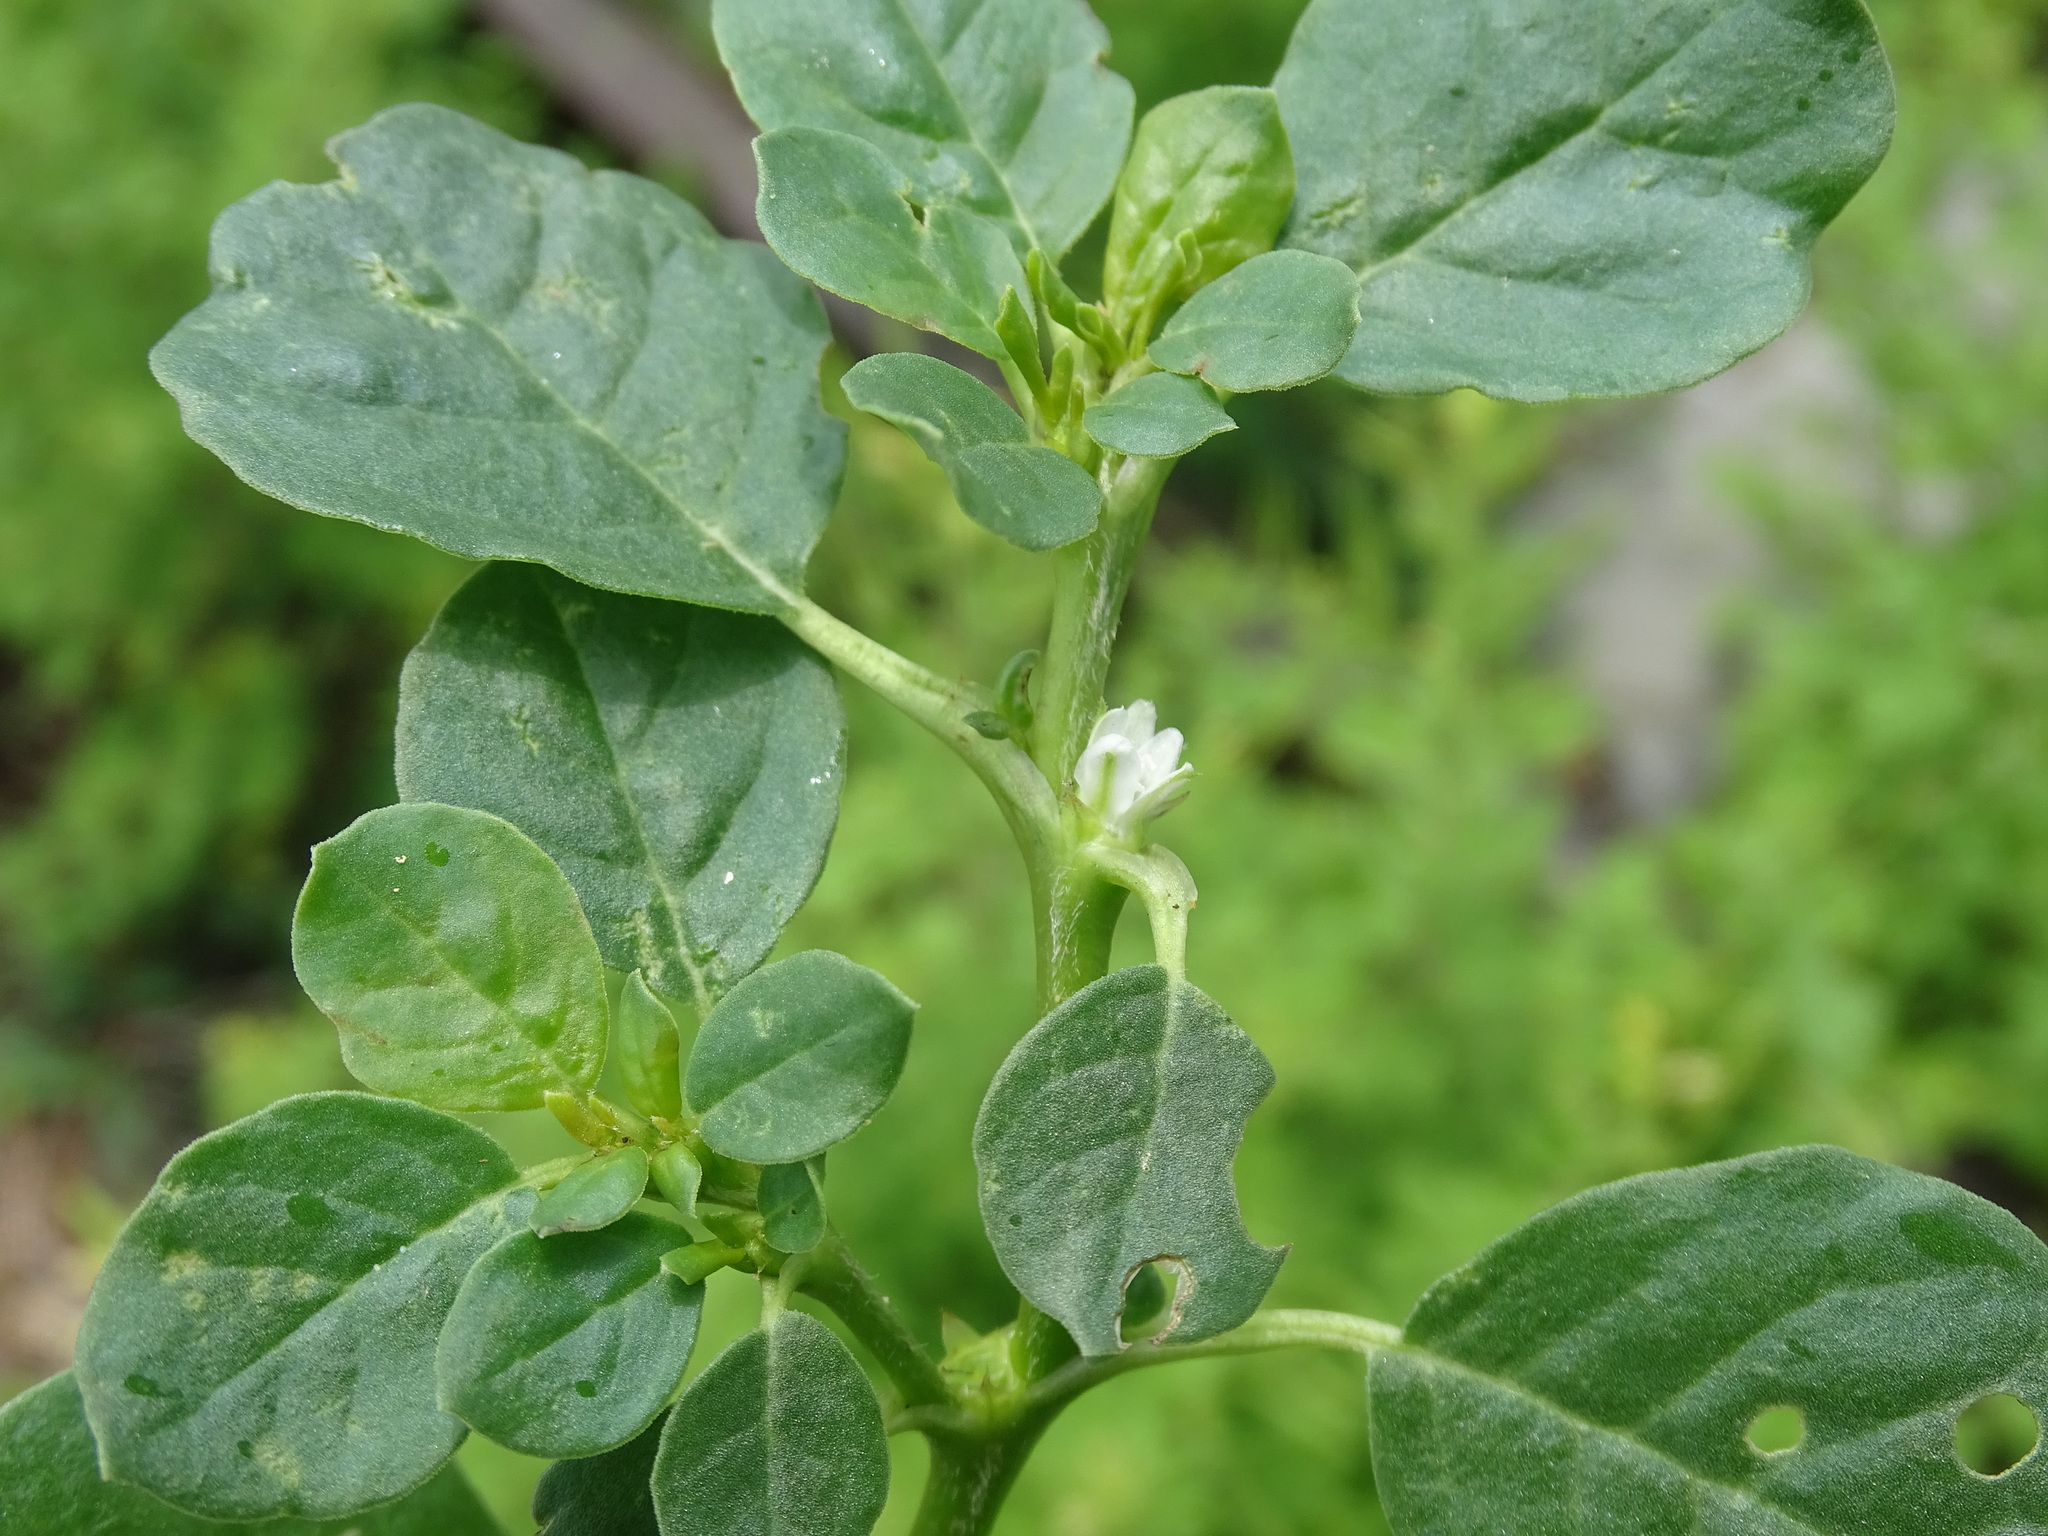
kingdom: Plantae
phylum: Tracheophyta
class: Magnoliopsida
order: Caryophyllales
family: Aizoaceae
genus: Trianthema
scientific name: Trianthema portulacastrum
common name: Desert horsepurslane
